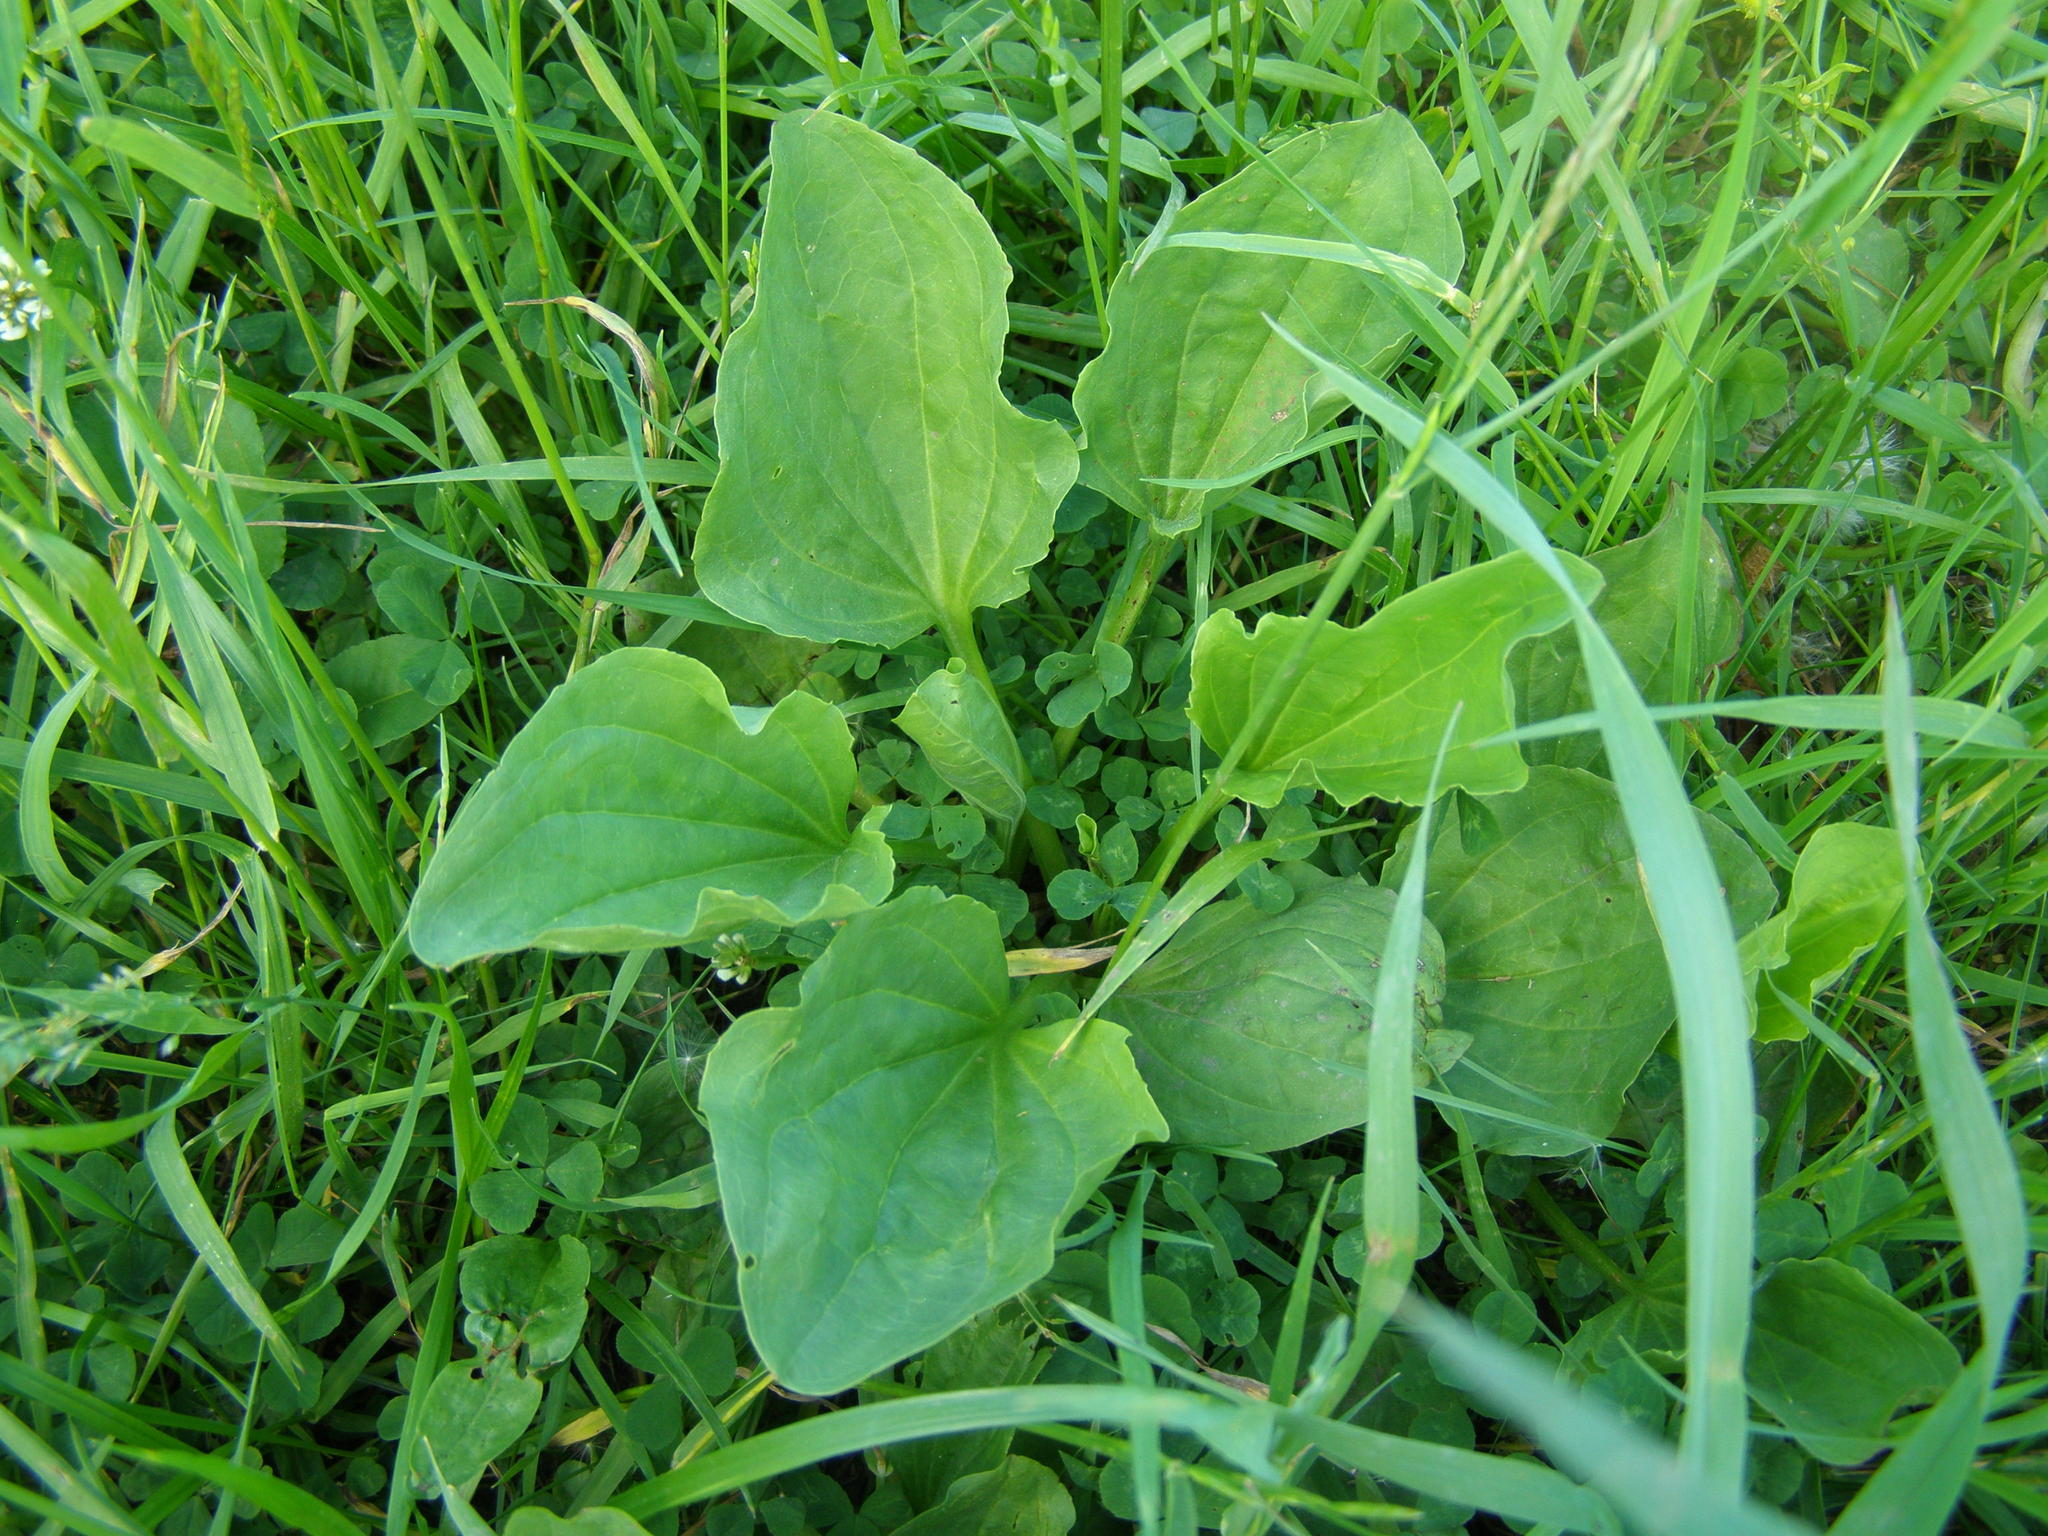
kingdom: Plantae
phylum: Tracheophyta
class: Magnoliopsida
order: Lamiales
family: Plantaginaceae
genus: Plantago
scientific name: Plantago major
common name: Common plantain
